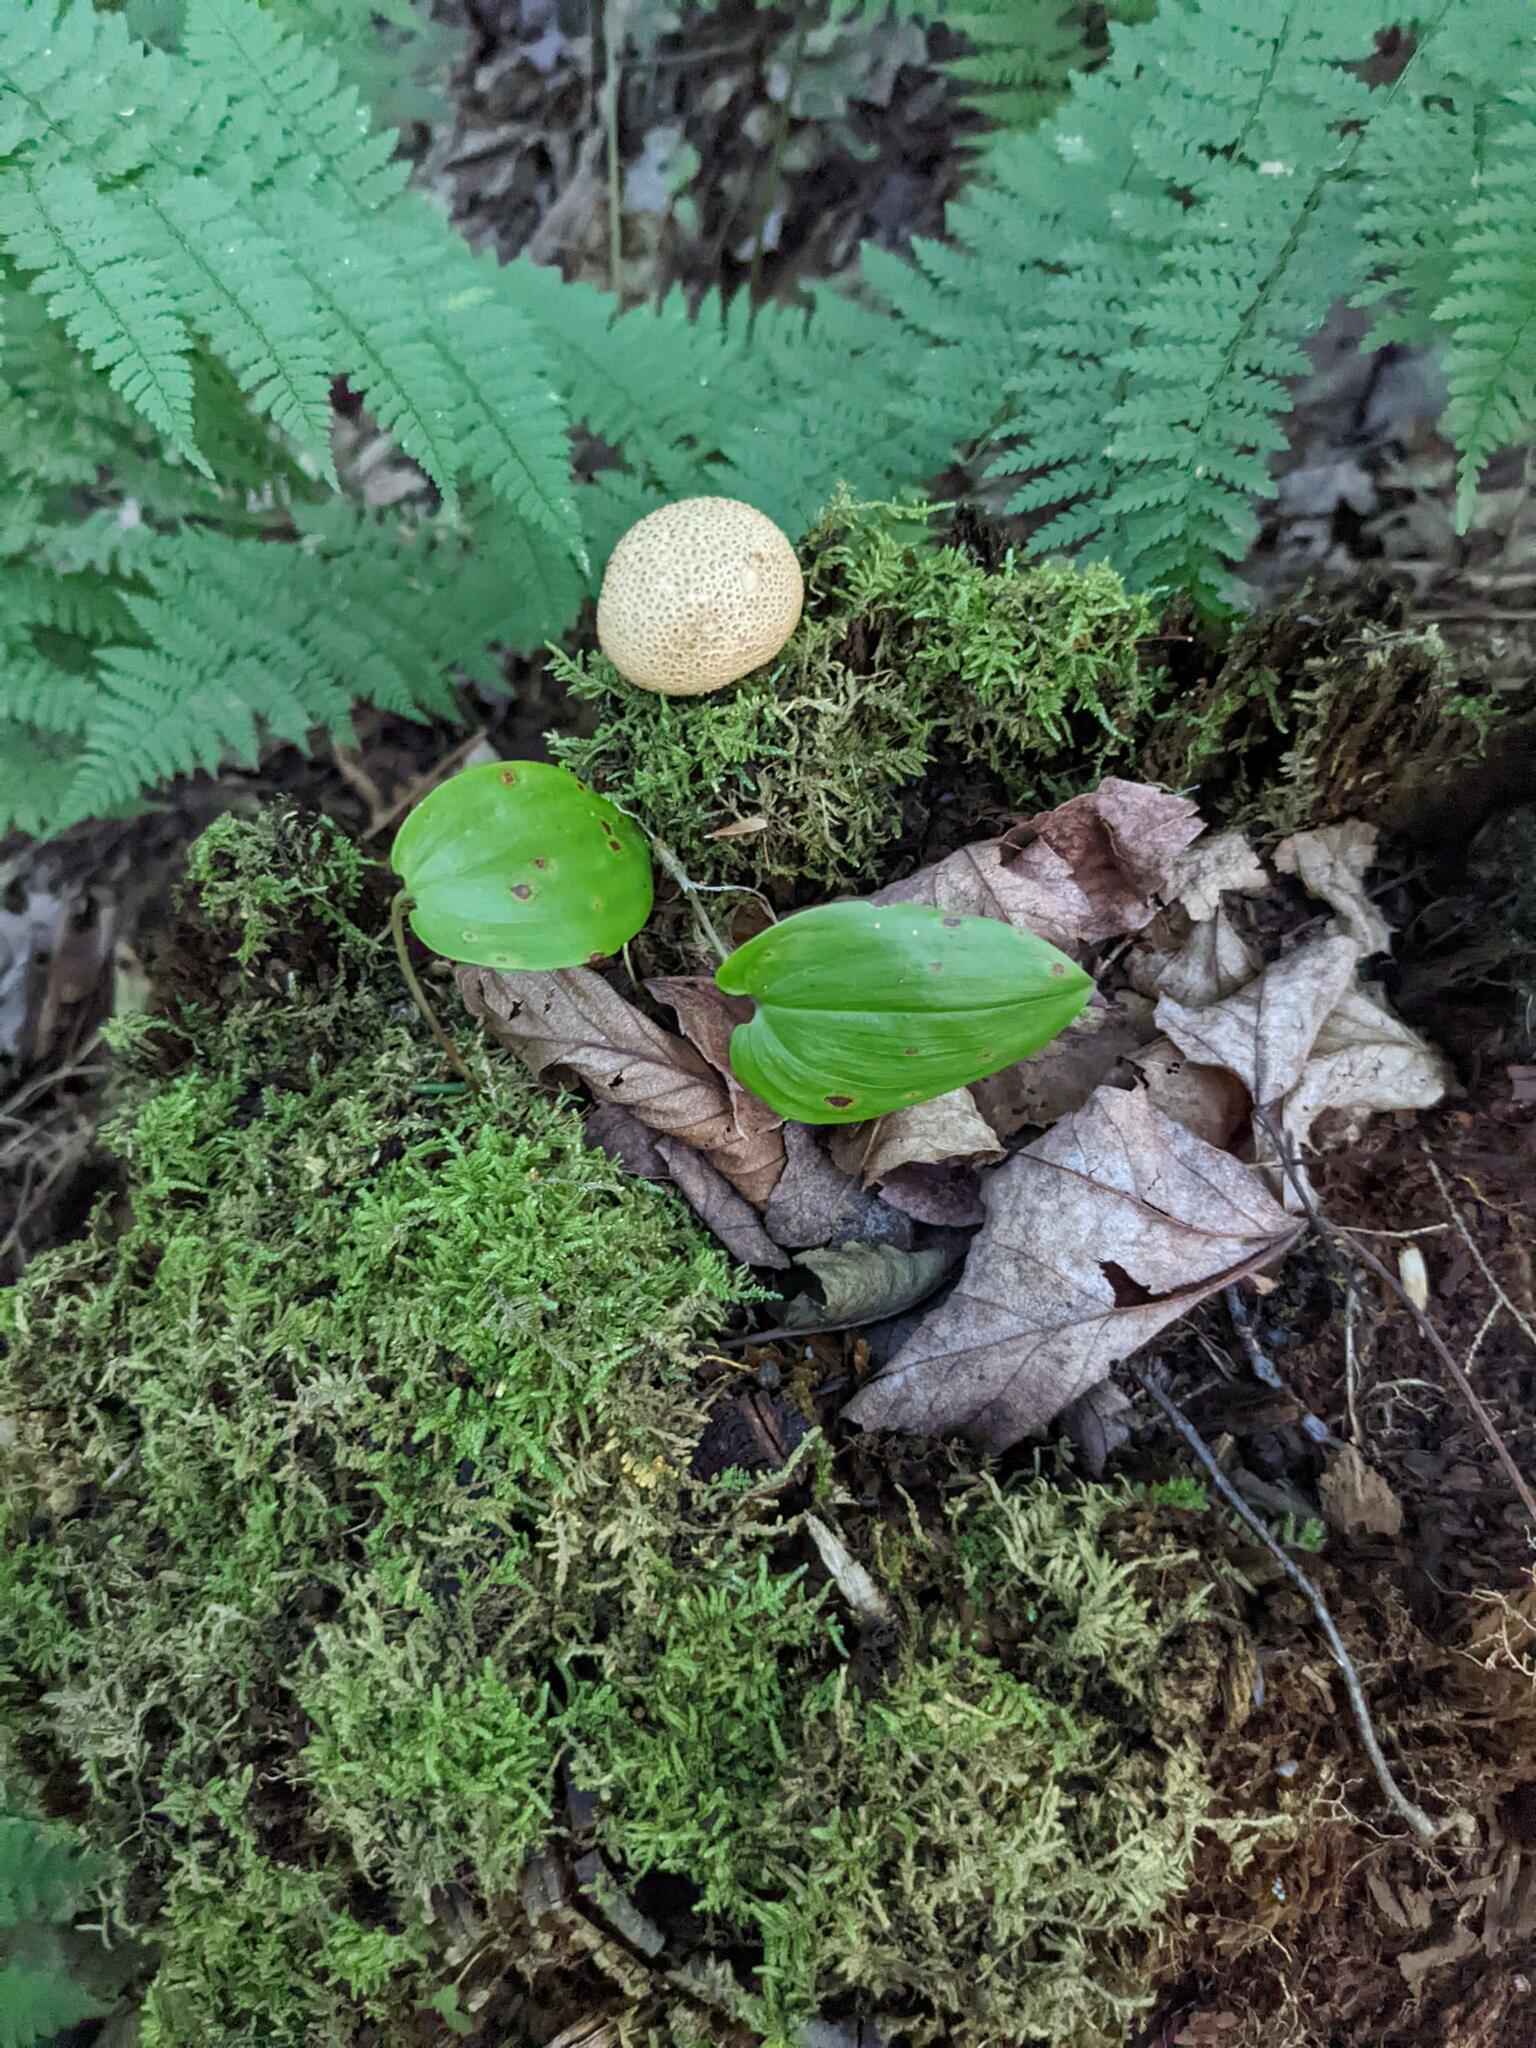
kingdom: Plantae
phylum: Tracheophyta
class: Liliopsida
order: Asparagales
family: Asparagaceae
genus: Maianthemum
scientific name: Maianthemum canadense
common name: False lily-of-the-valley
